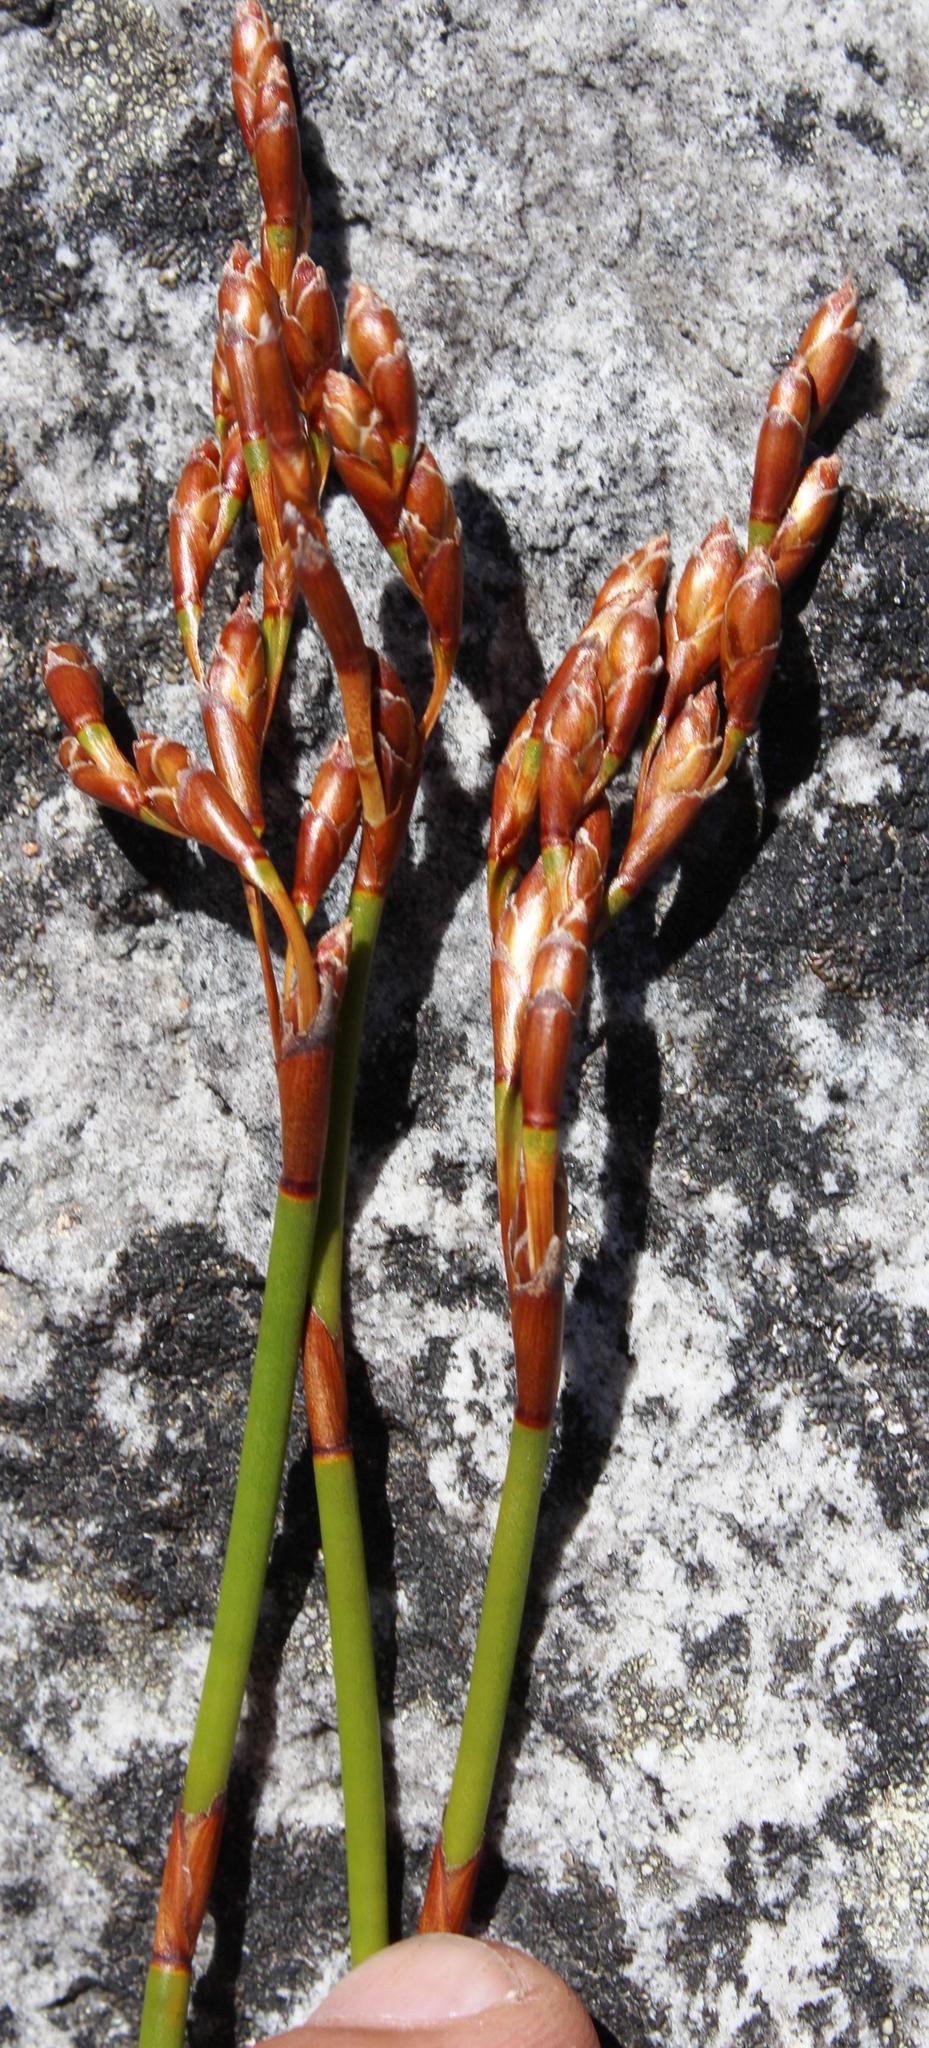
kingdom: Plantae
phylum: Tracheophyta
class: Liliopsida
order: Poales
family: Restionaceae
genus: Restio
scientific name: Restio egregius
